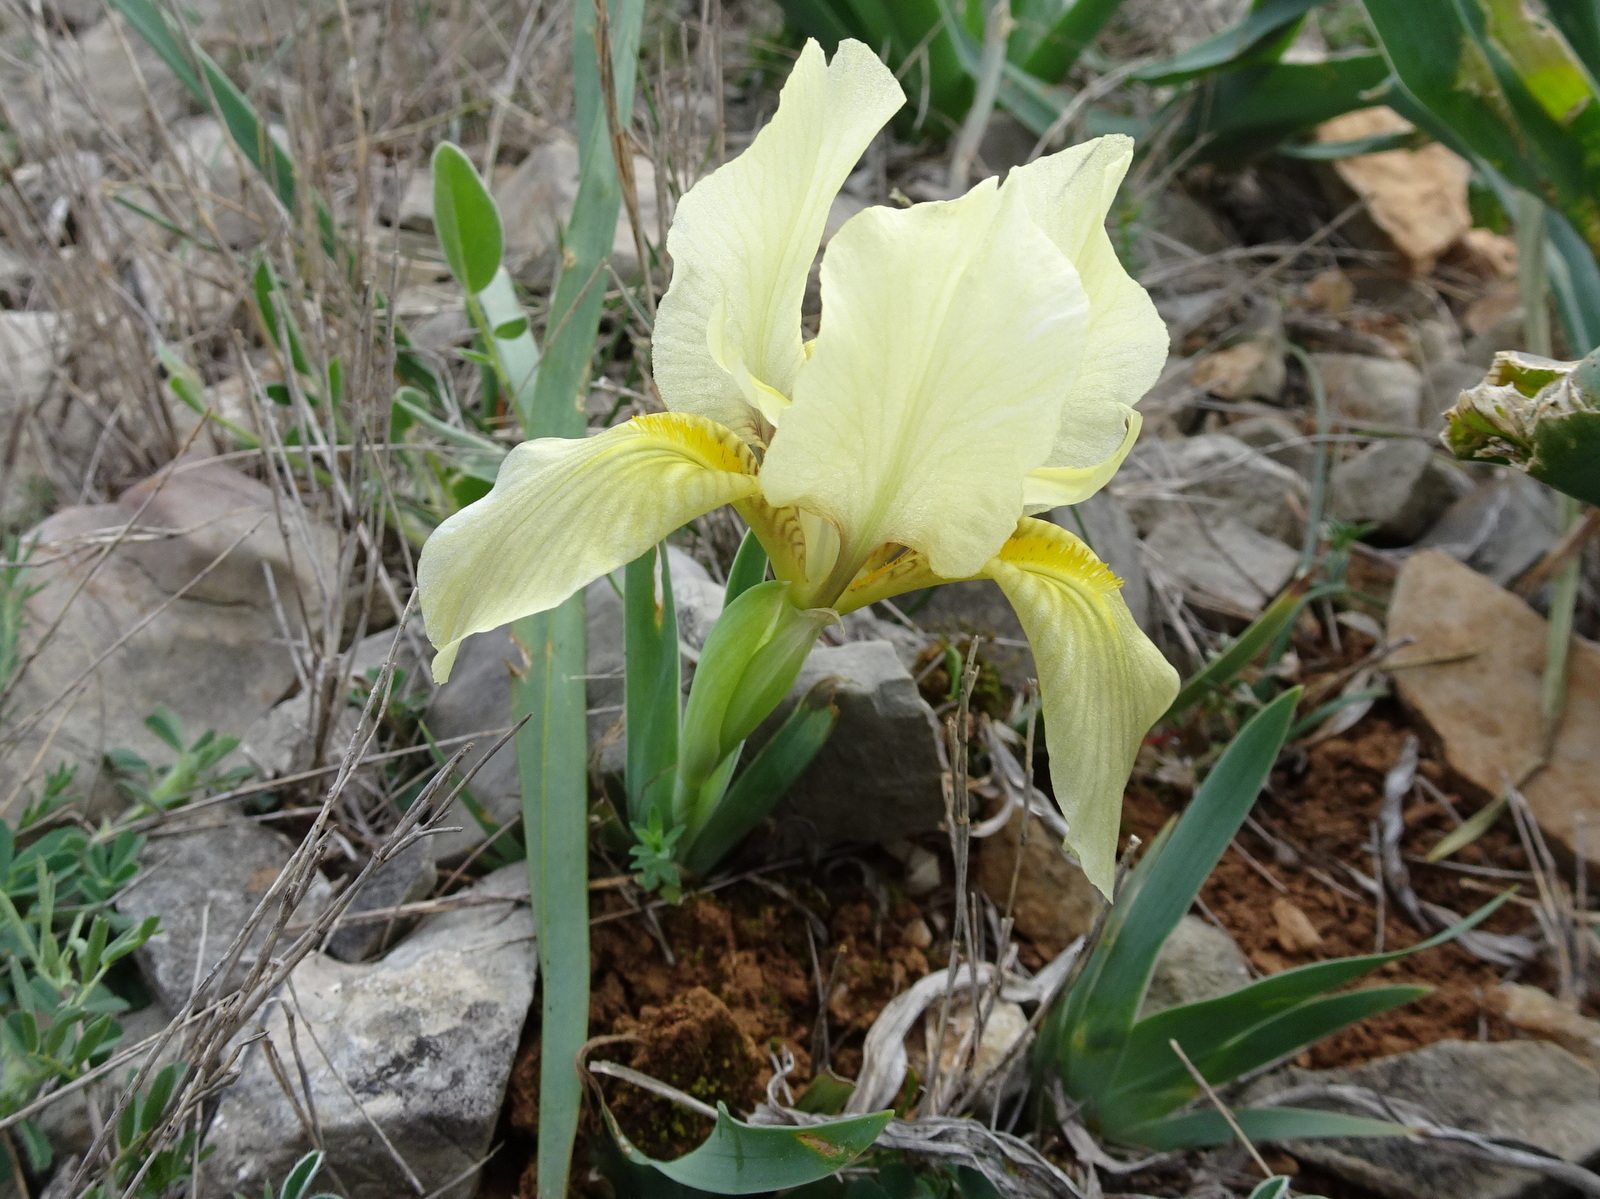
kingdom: Plantae
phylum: Tracheophyta
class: Liliopsida
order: Asparagales
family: Iridaceae
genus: Iris
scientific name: Iris lutescens
